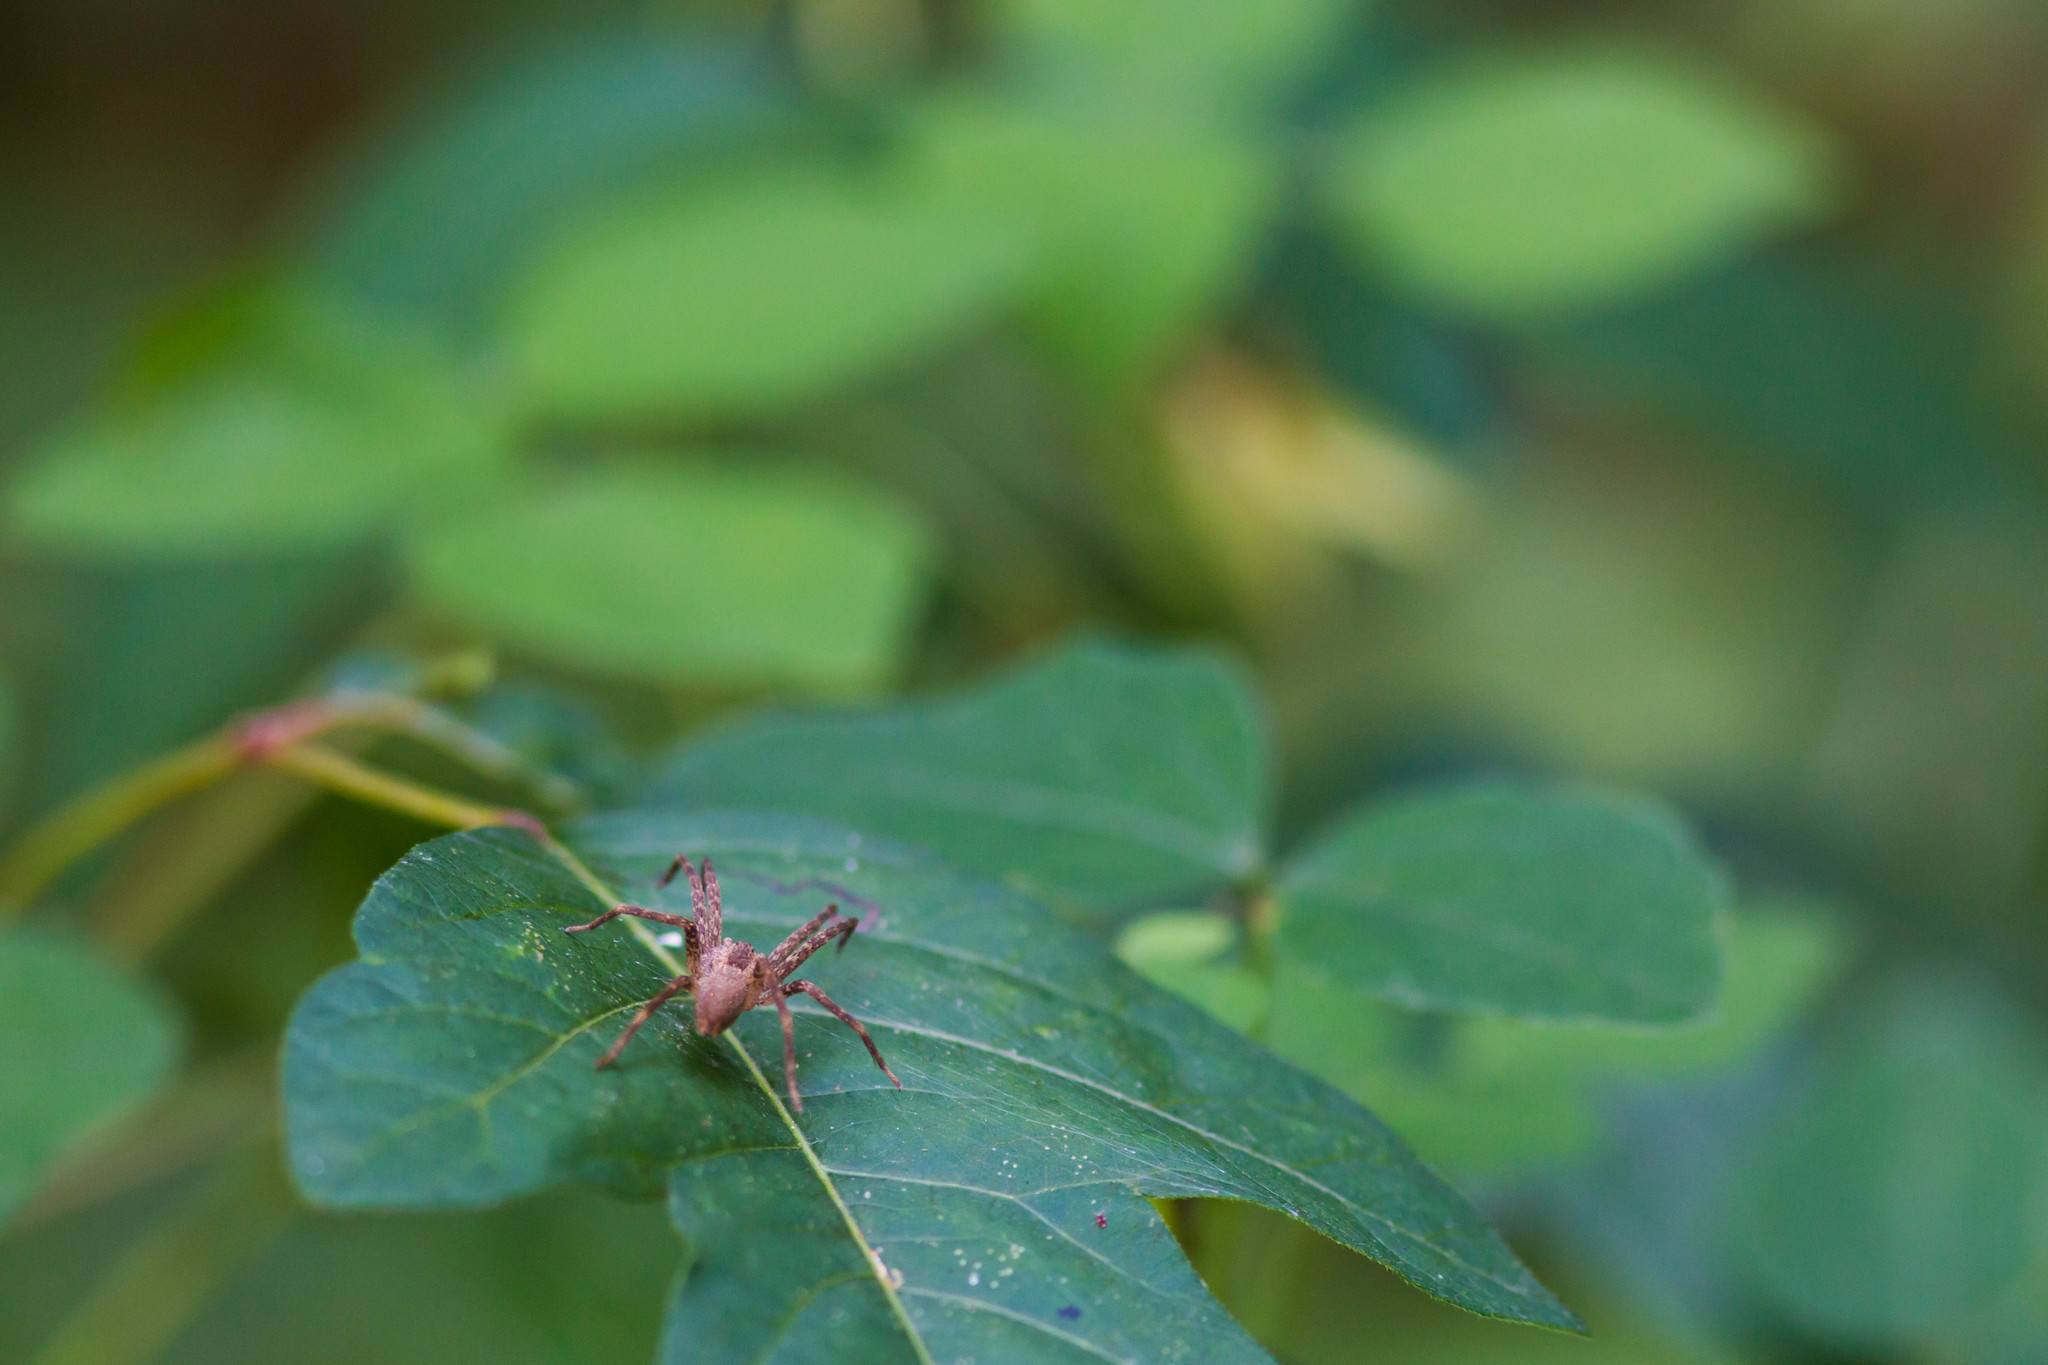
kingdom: Animalia
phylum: Arthropoda
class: Arachnida
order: Araneae
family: Pisauridae
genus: Pisaurina
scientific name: Pisaurina mira
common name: American nursery web spider
